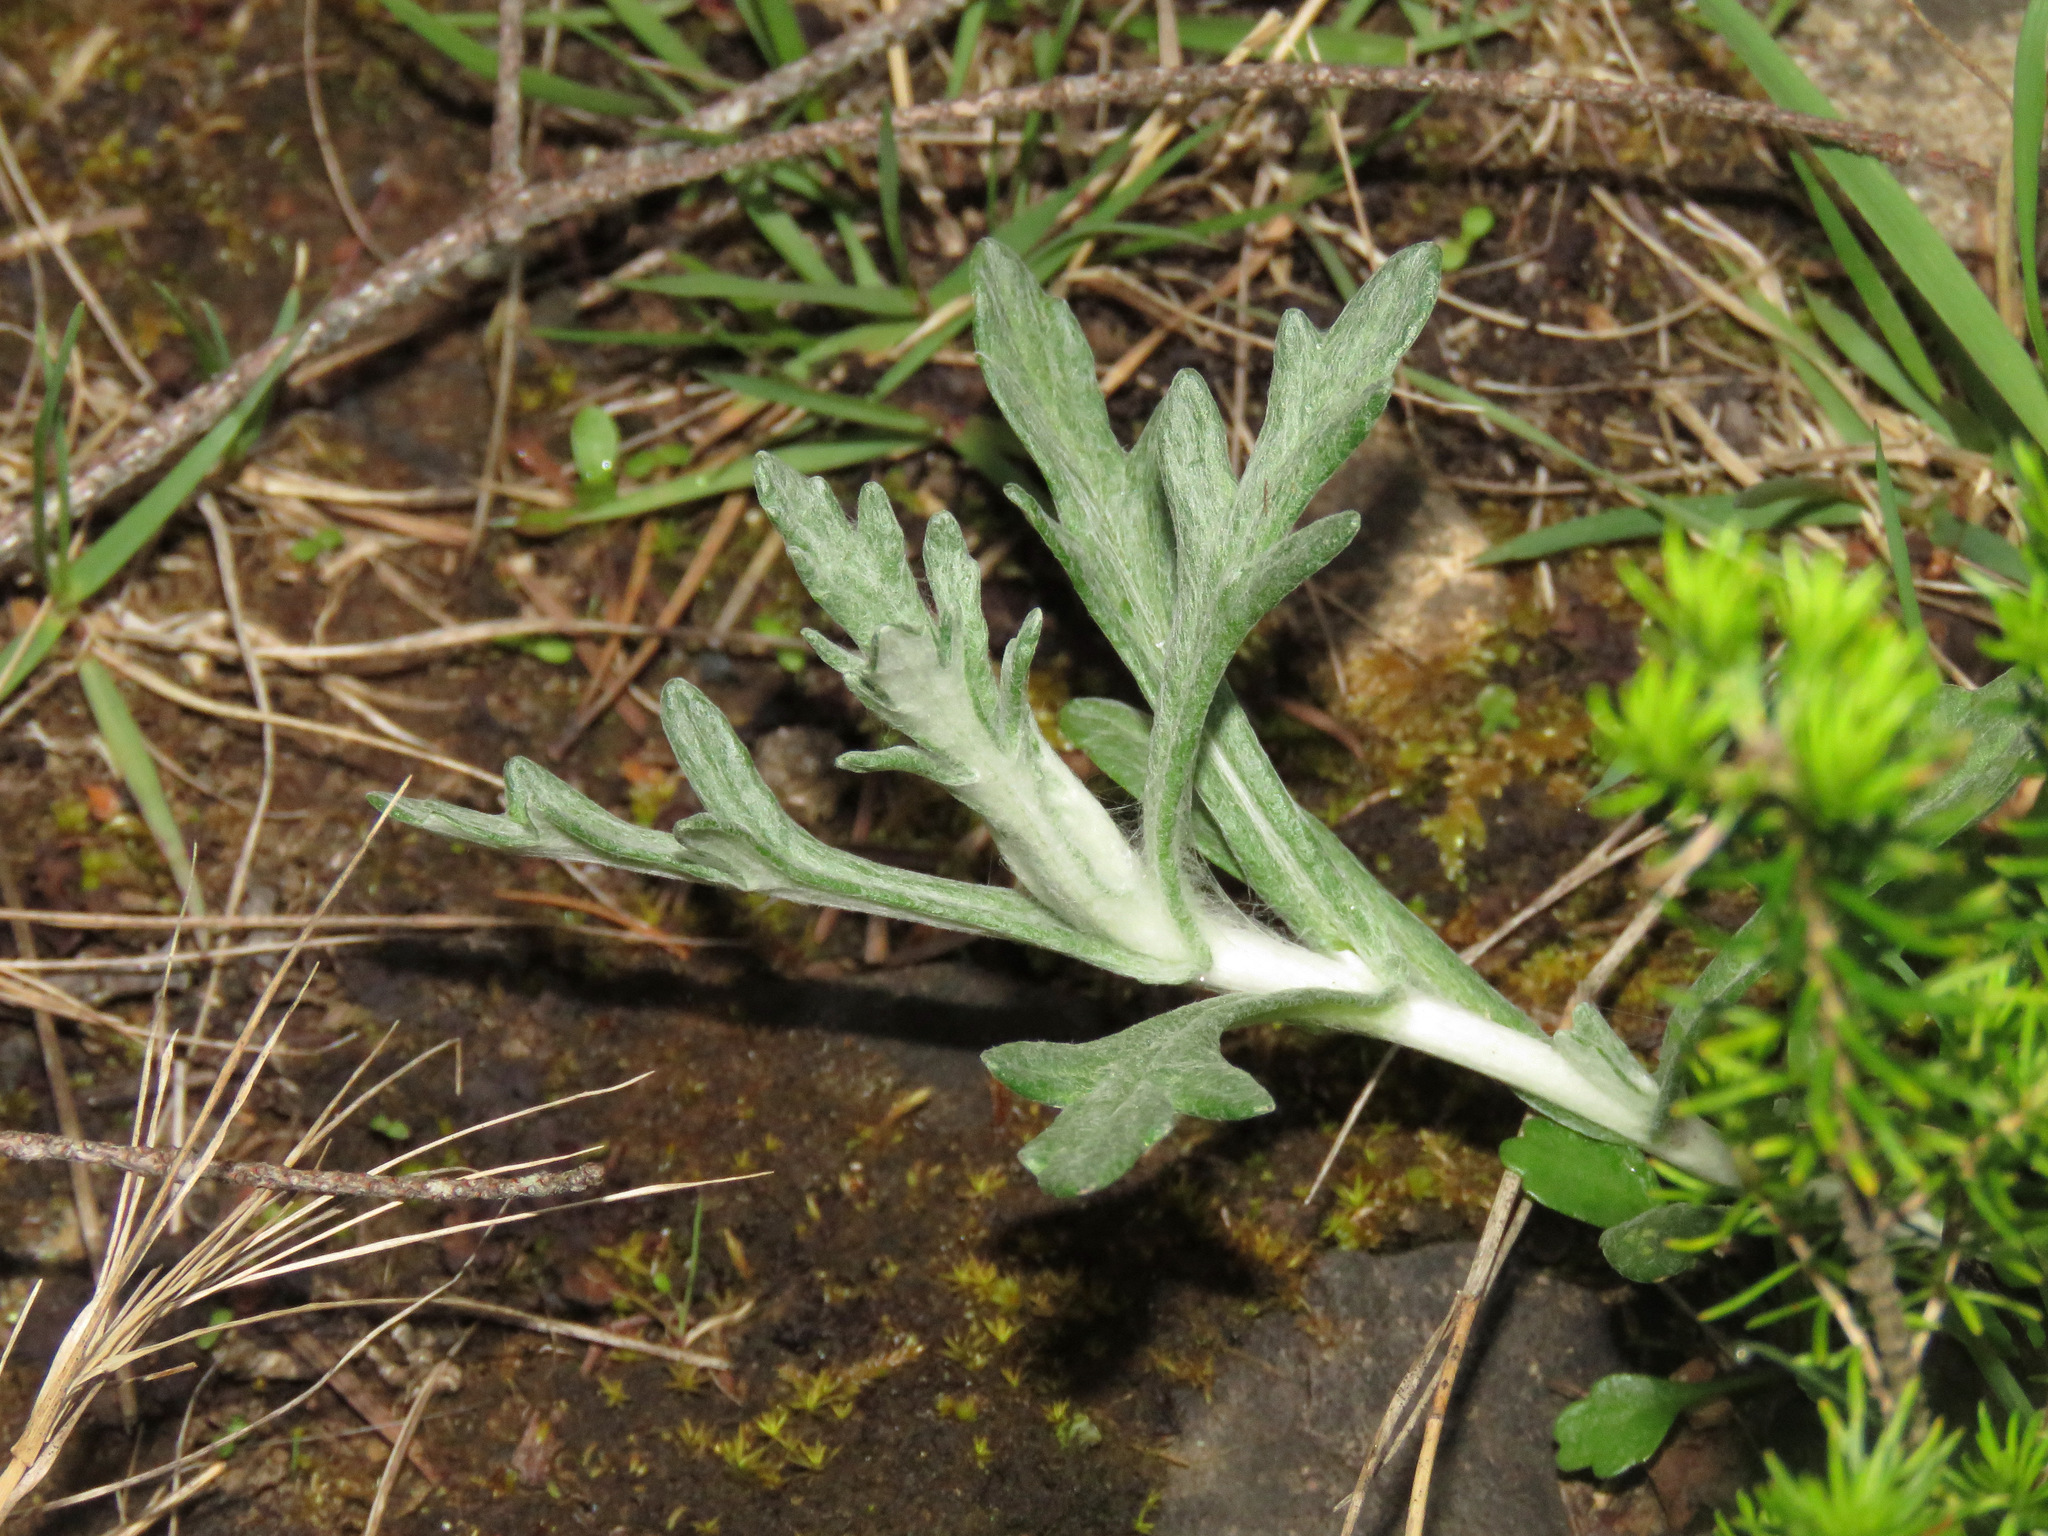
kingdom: Plantae
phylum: Tracheophyta
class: Magnoliopsida
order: Asterales
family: Asteraceae
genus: Eriophyllum
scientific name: Eriophyllum lanatum
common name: Common woolly-sunflower
